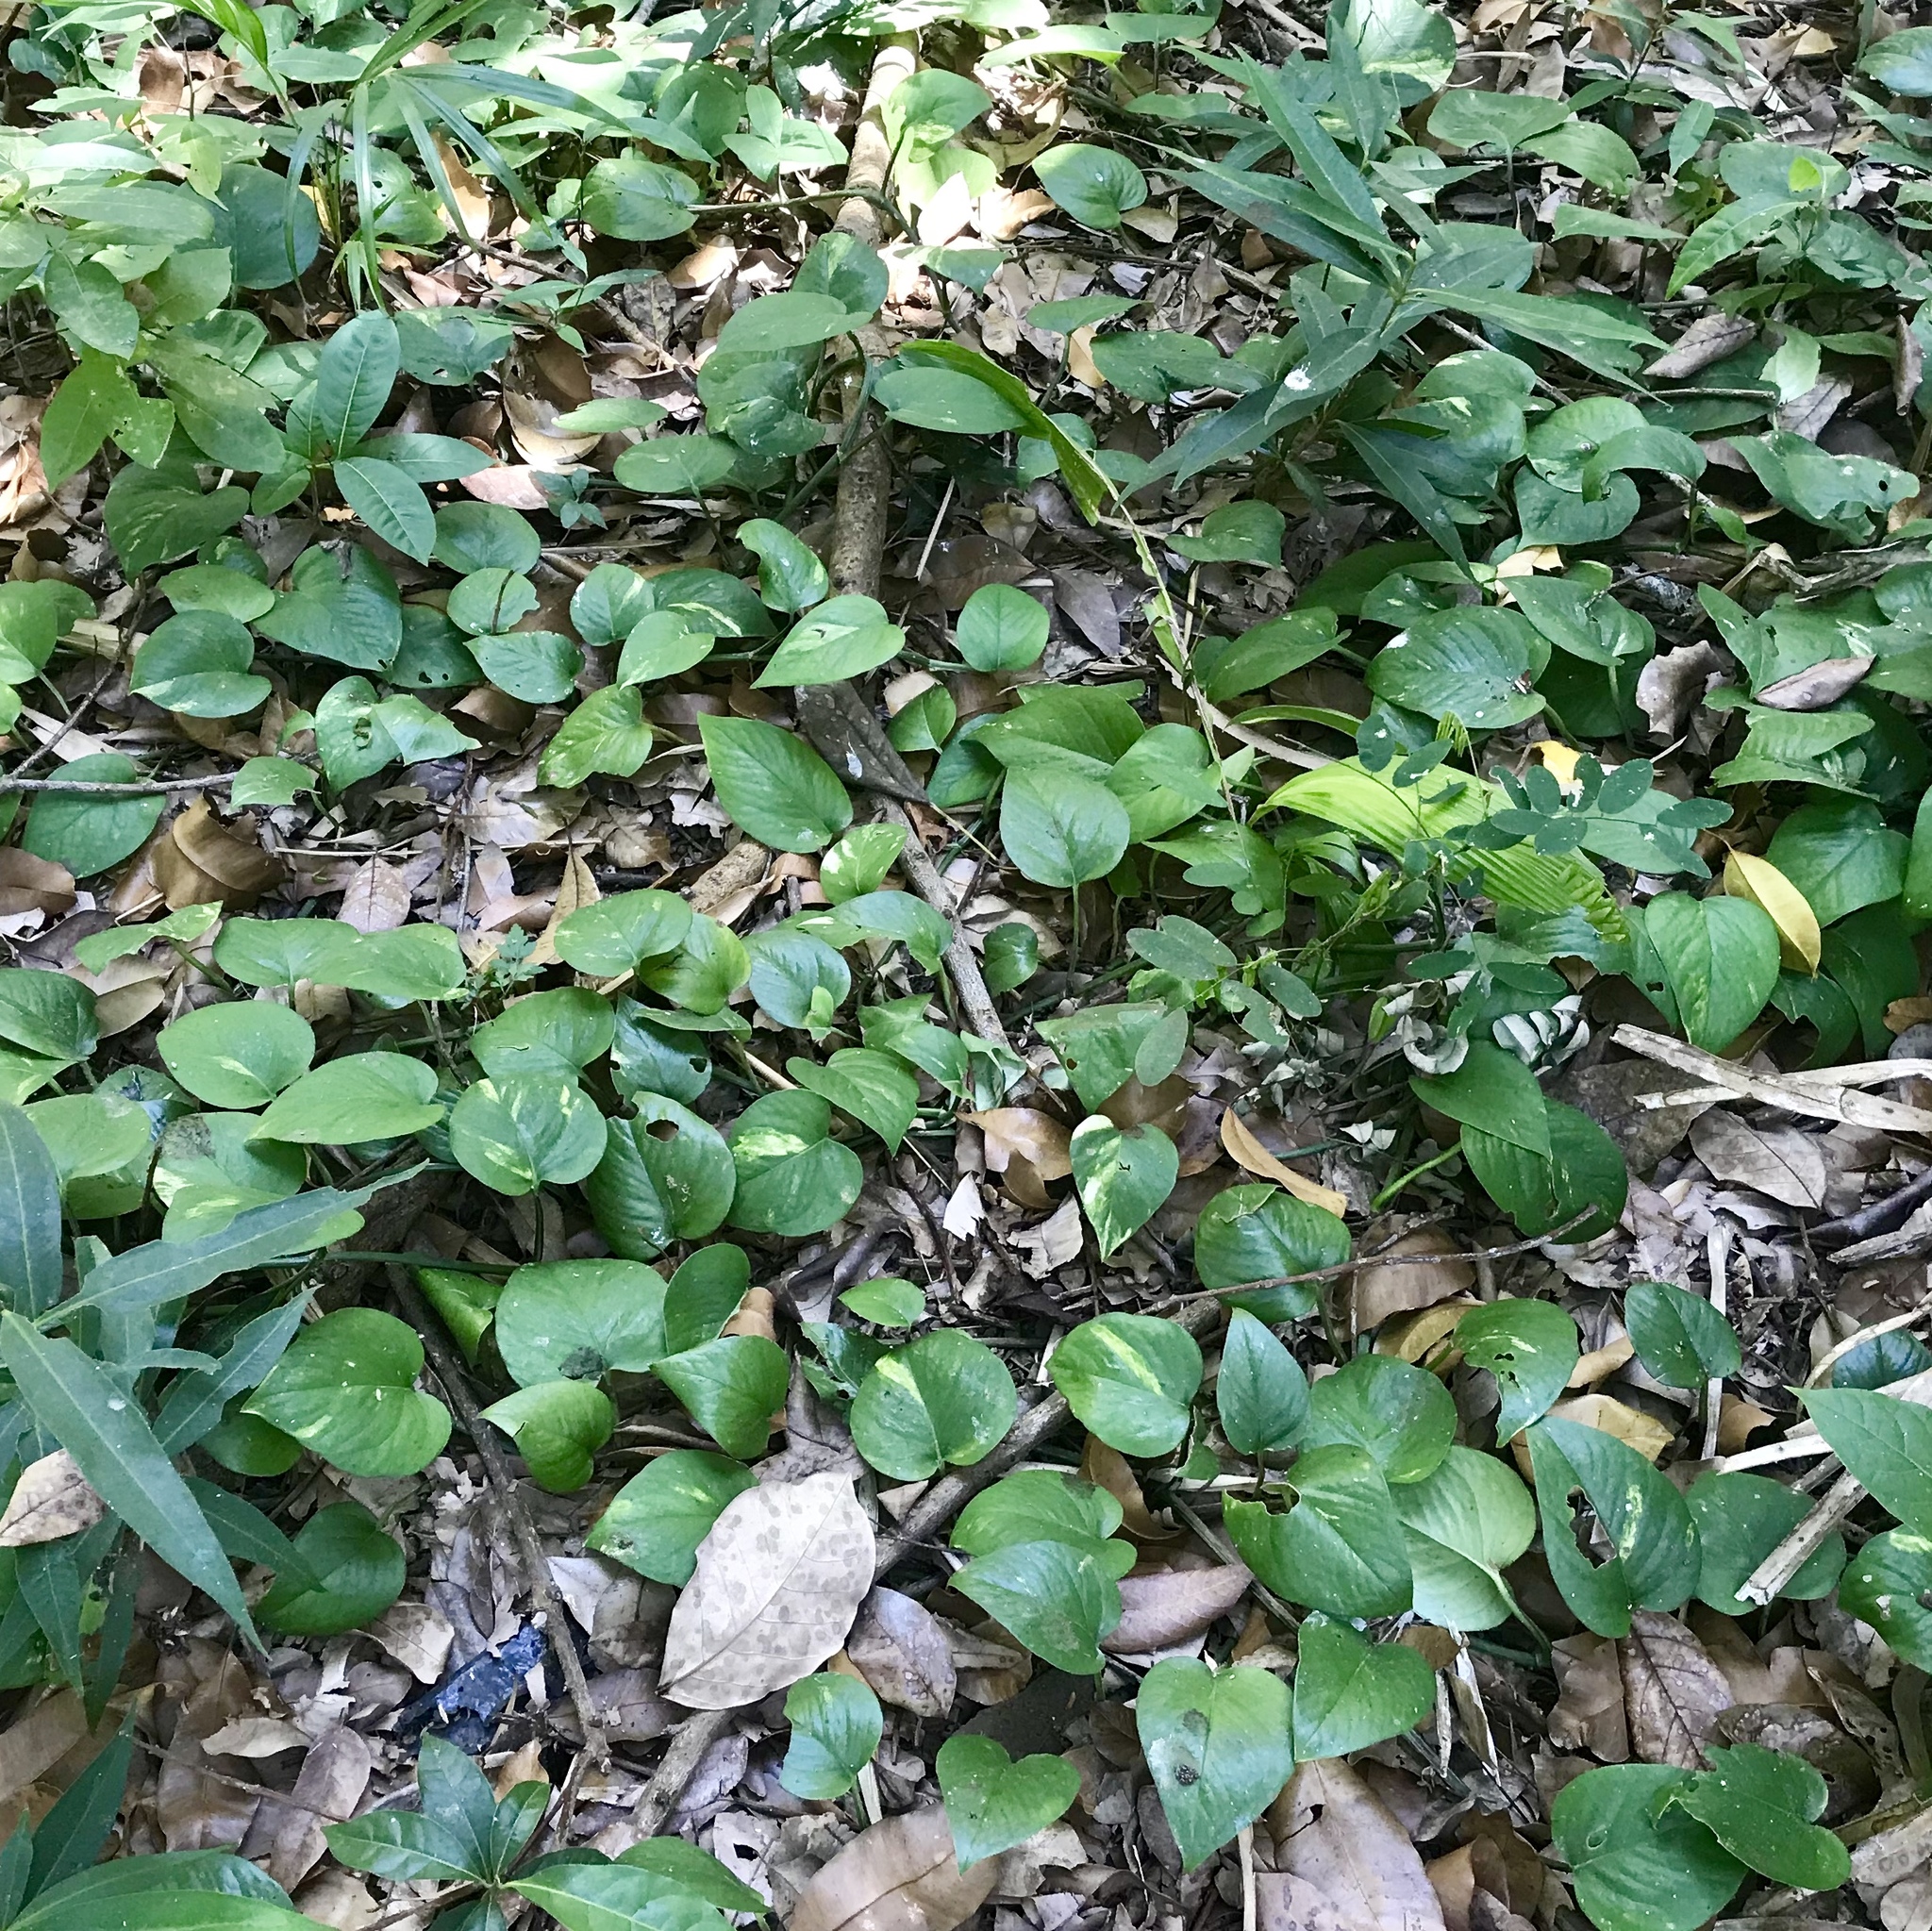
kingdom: Plantae
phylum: Tracheophyta
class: Liliopsida
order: Alismatales
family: Araceae
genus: Epipremnum
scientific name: Epipremnum aureum
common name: Golden hunter's-robe
